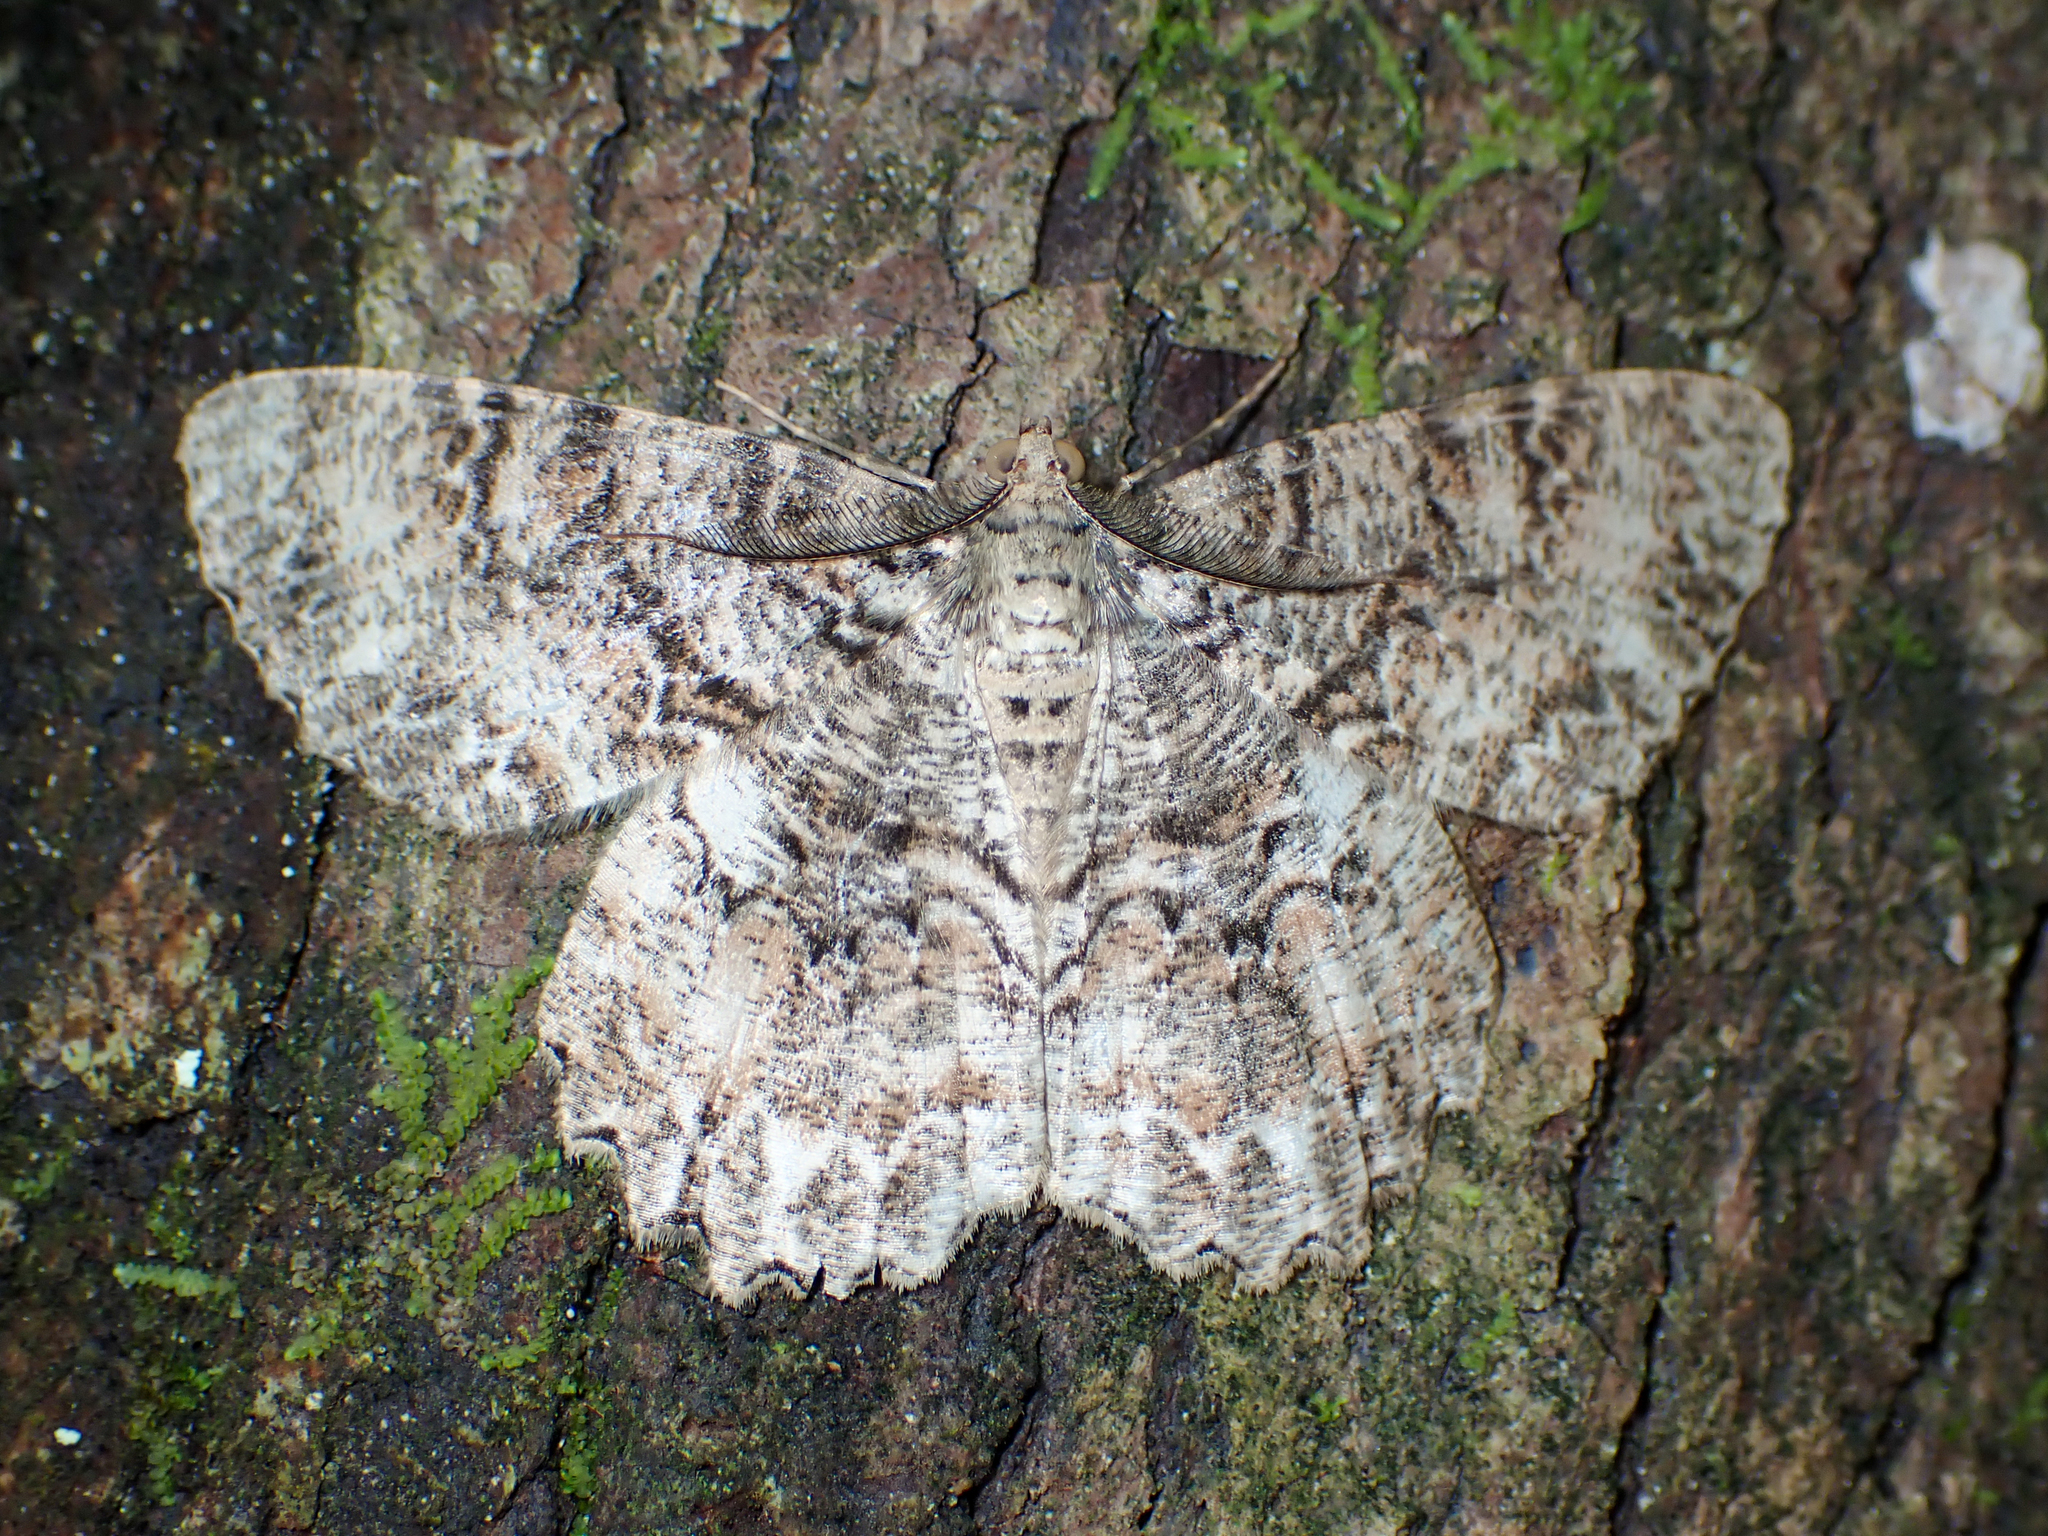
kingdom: Animalia
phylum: Arthropoda
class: Insecta
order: Lepidoptera
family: Geometridae
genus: Epimecis
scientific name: Epimecis hortaria
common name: Tulip-tree beauty
